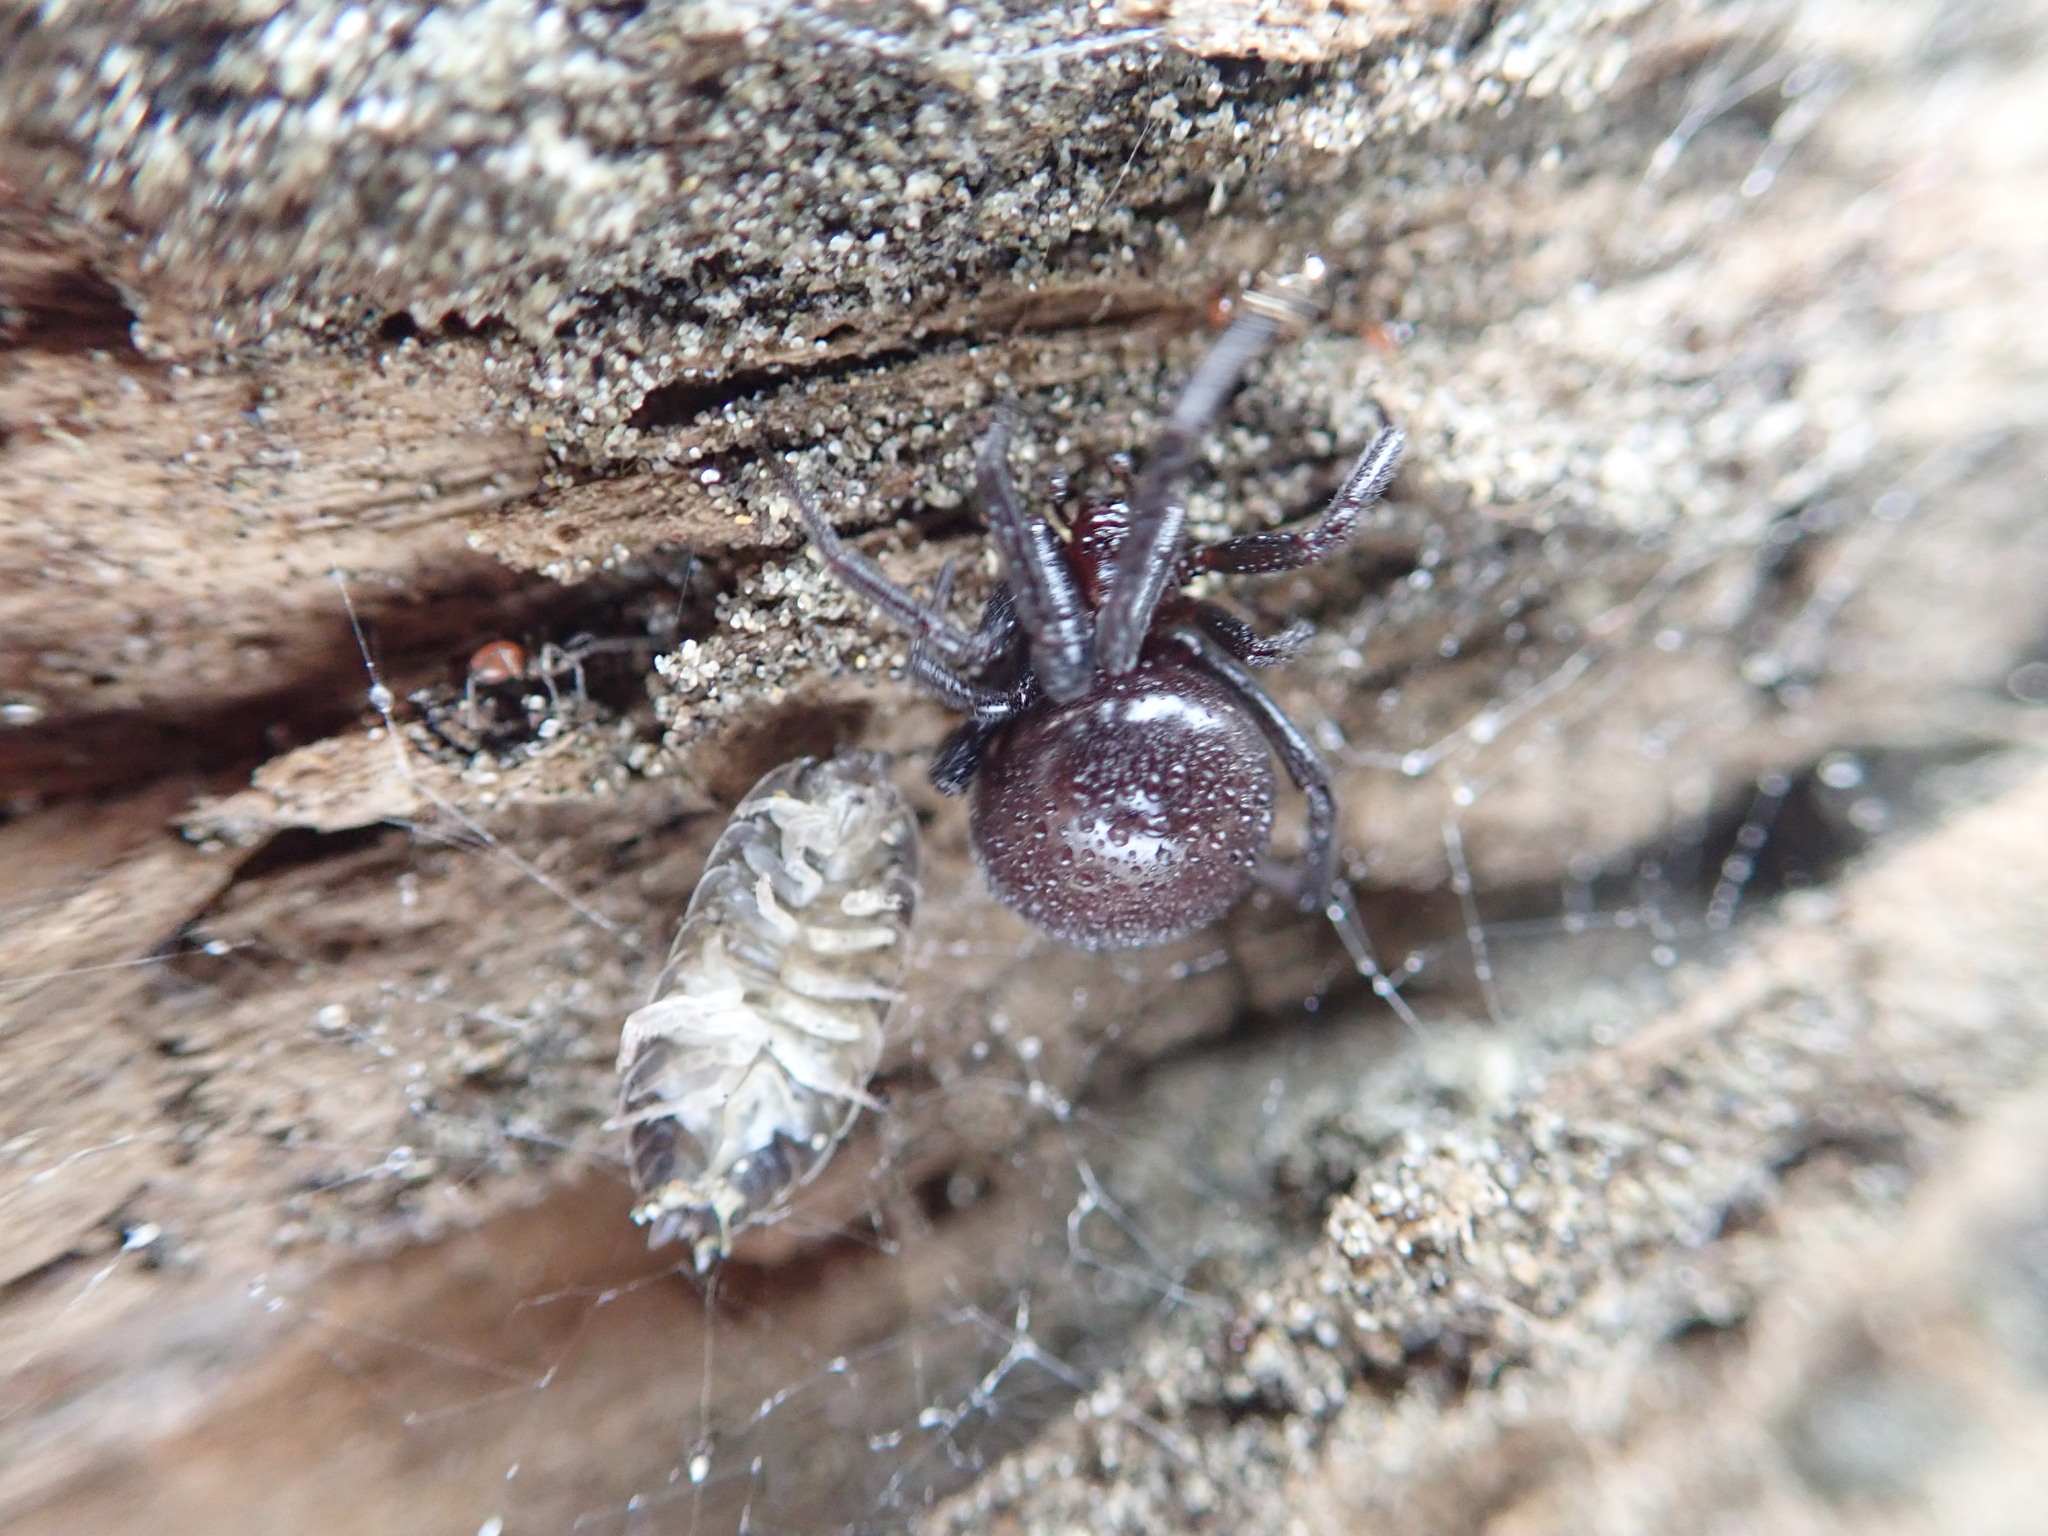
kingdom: Animalia
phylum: Arthropoda
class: Arachnida
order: Araneae
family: Theridiidae
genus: Steatoda
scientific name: Steatoda capensis
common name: Cobweb weaver
